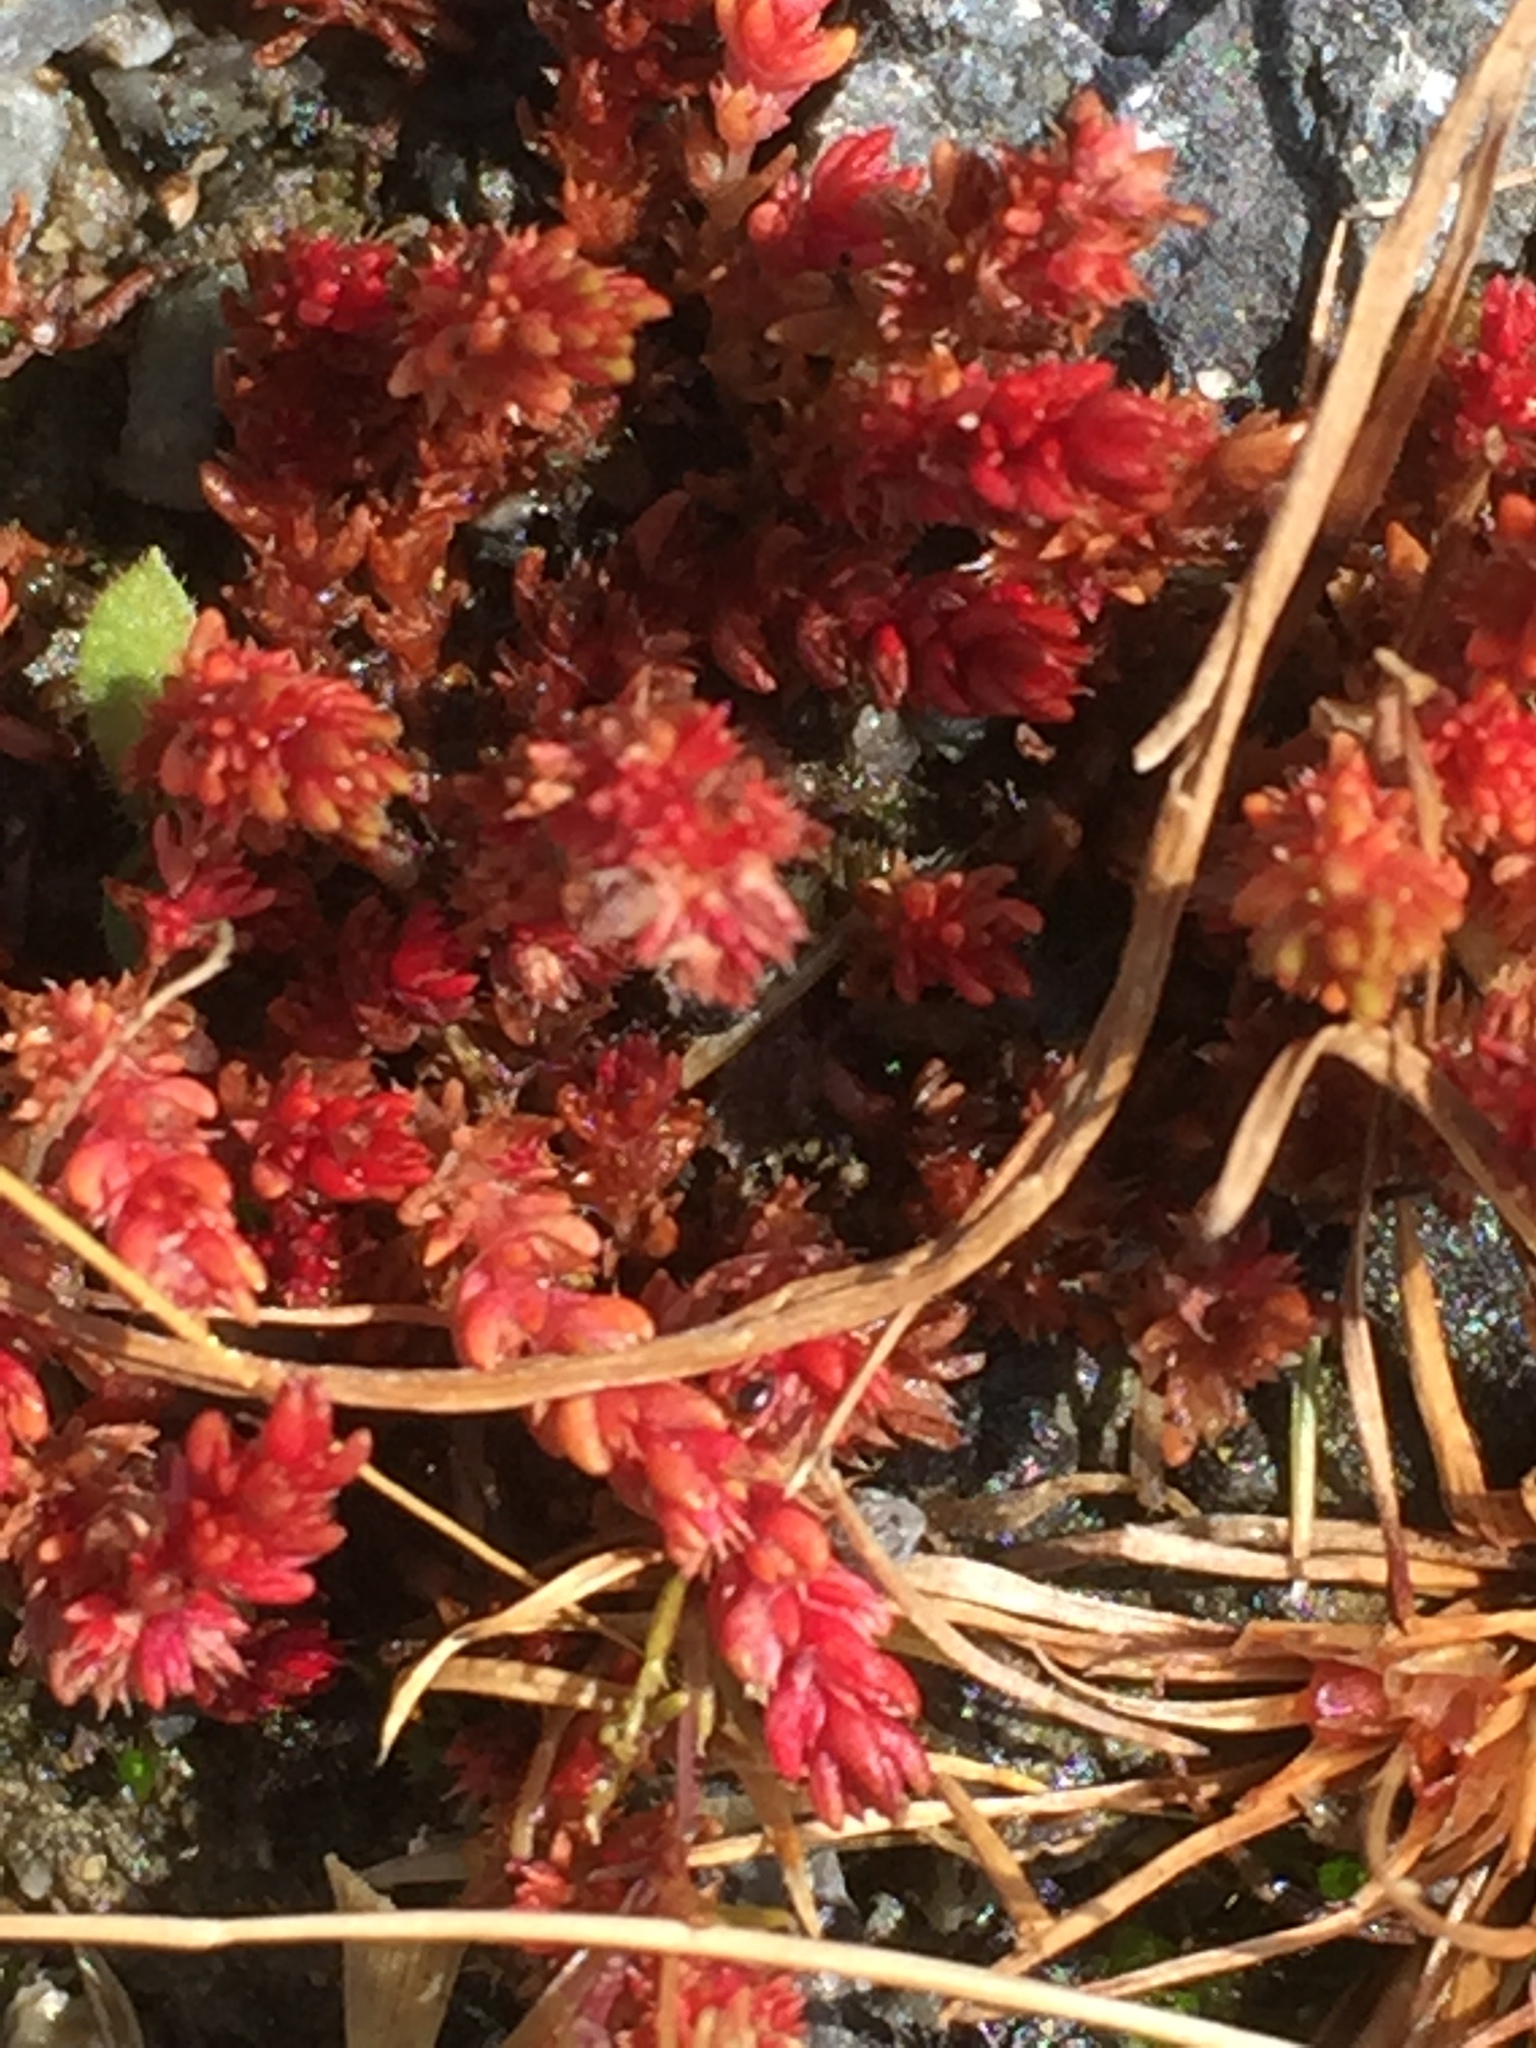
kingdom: Plantae
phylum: Tracheophyta
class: Magnoliopsida
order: Saxifragales
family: Crassulaceae
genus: Crassula
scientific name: Crassula tillaea
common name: Mossy stonecrop
